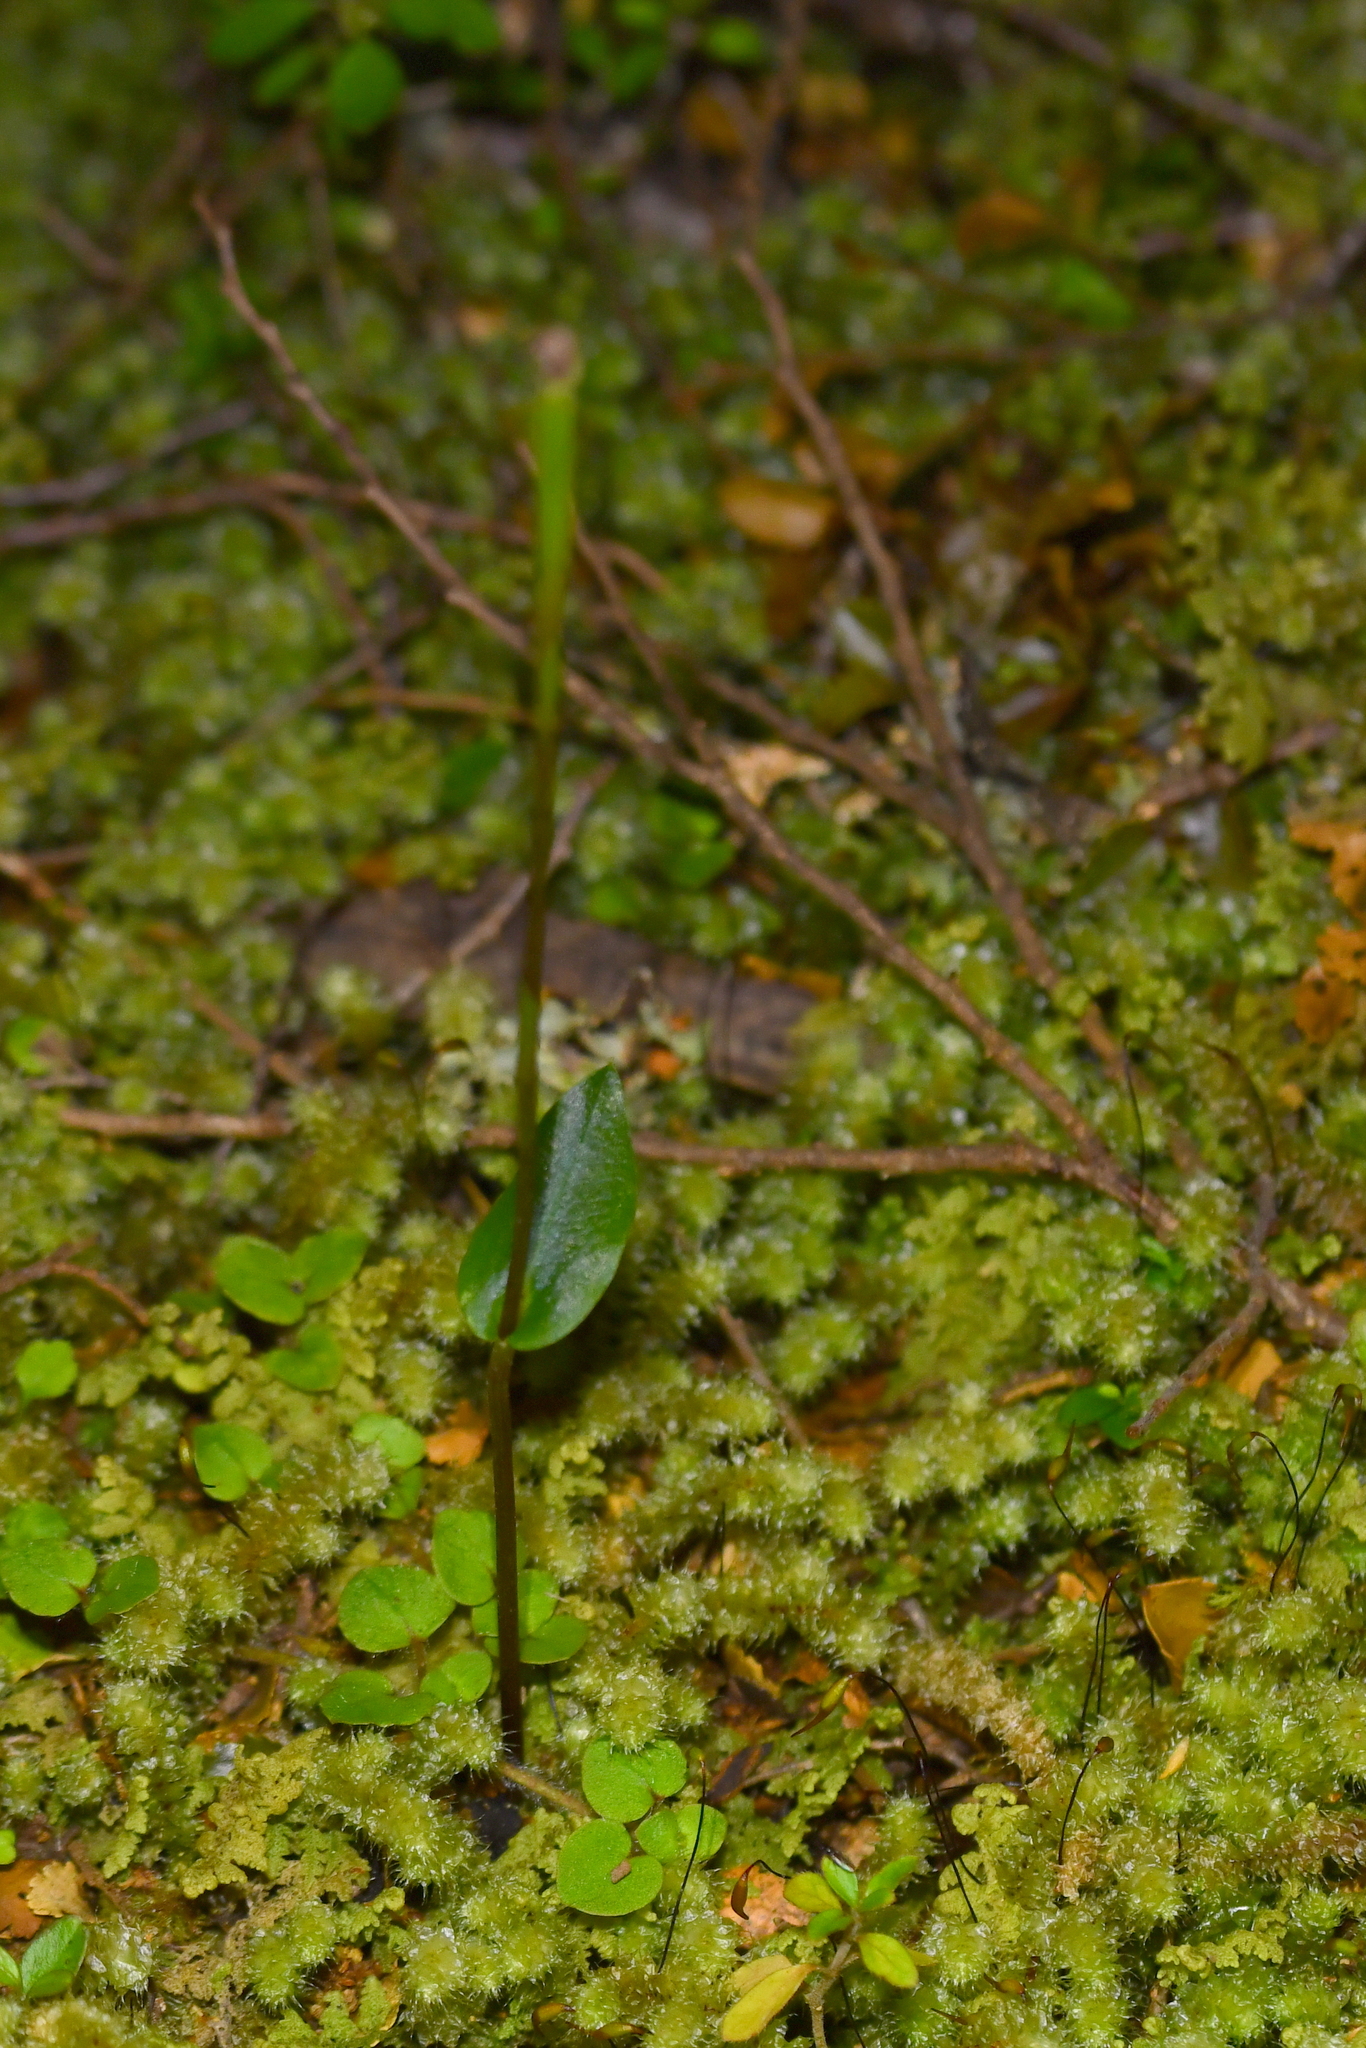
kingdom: Plantae
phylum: Tracheophyta
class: Liliopsida
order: Asparagales
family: Orchidaceae
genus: Adenochilus
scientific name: Adenochilus gracilis
